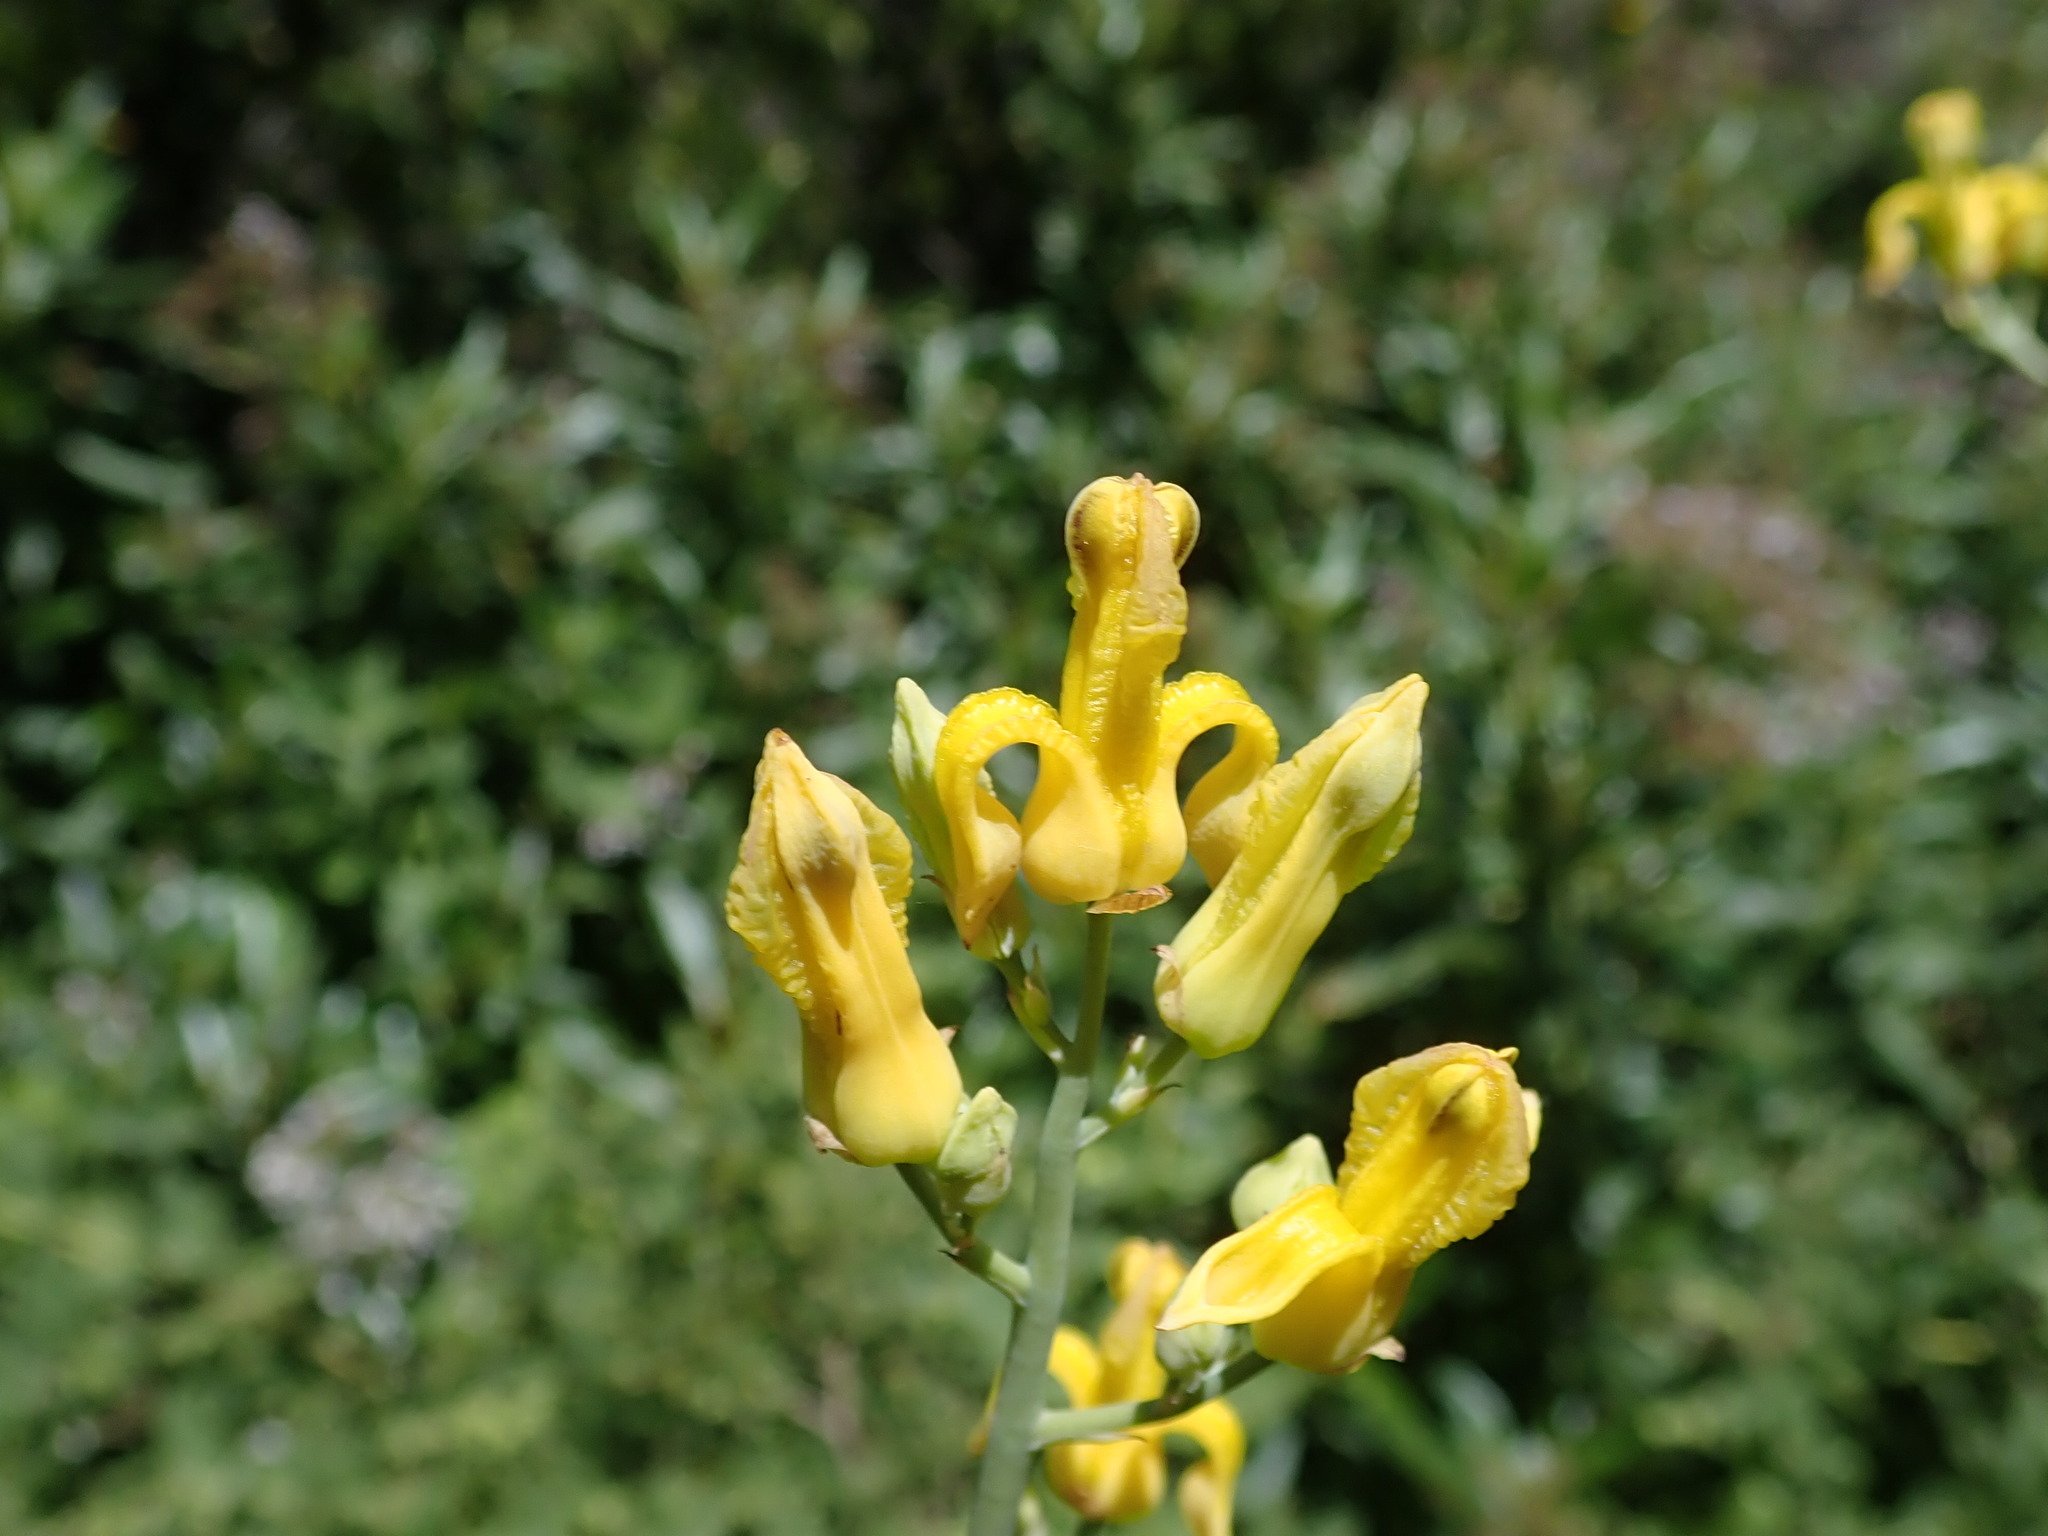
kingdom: Plantae
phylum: Tracheophyta
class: Magnoliopsida
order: Ranunculales
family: Papaveraceae
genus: Ehrendorferia
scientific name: Ehrendorferia chrysantha
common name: Golden eardrops
